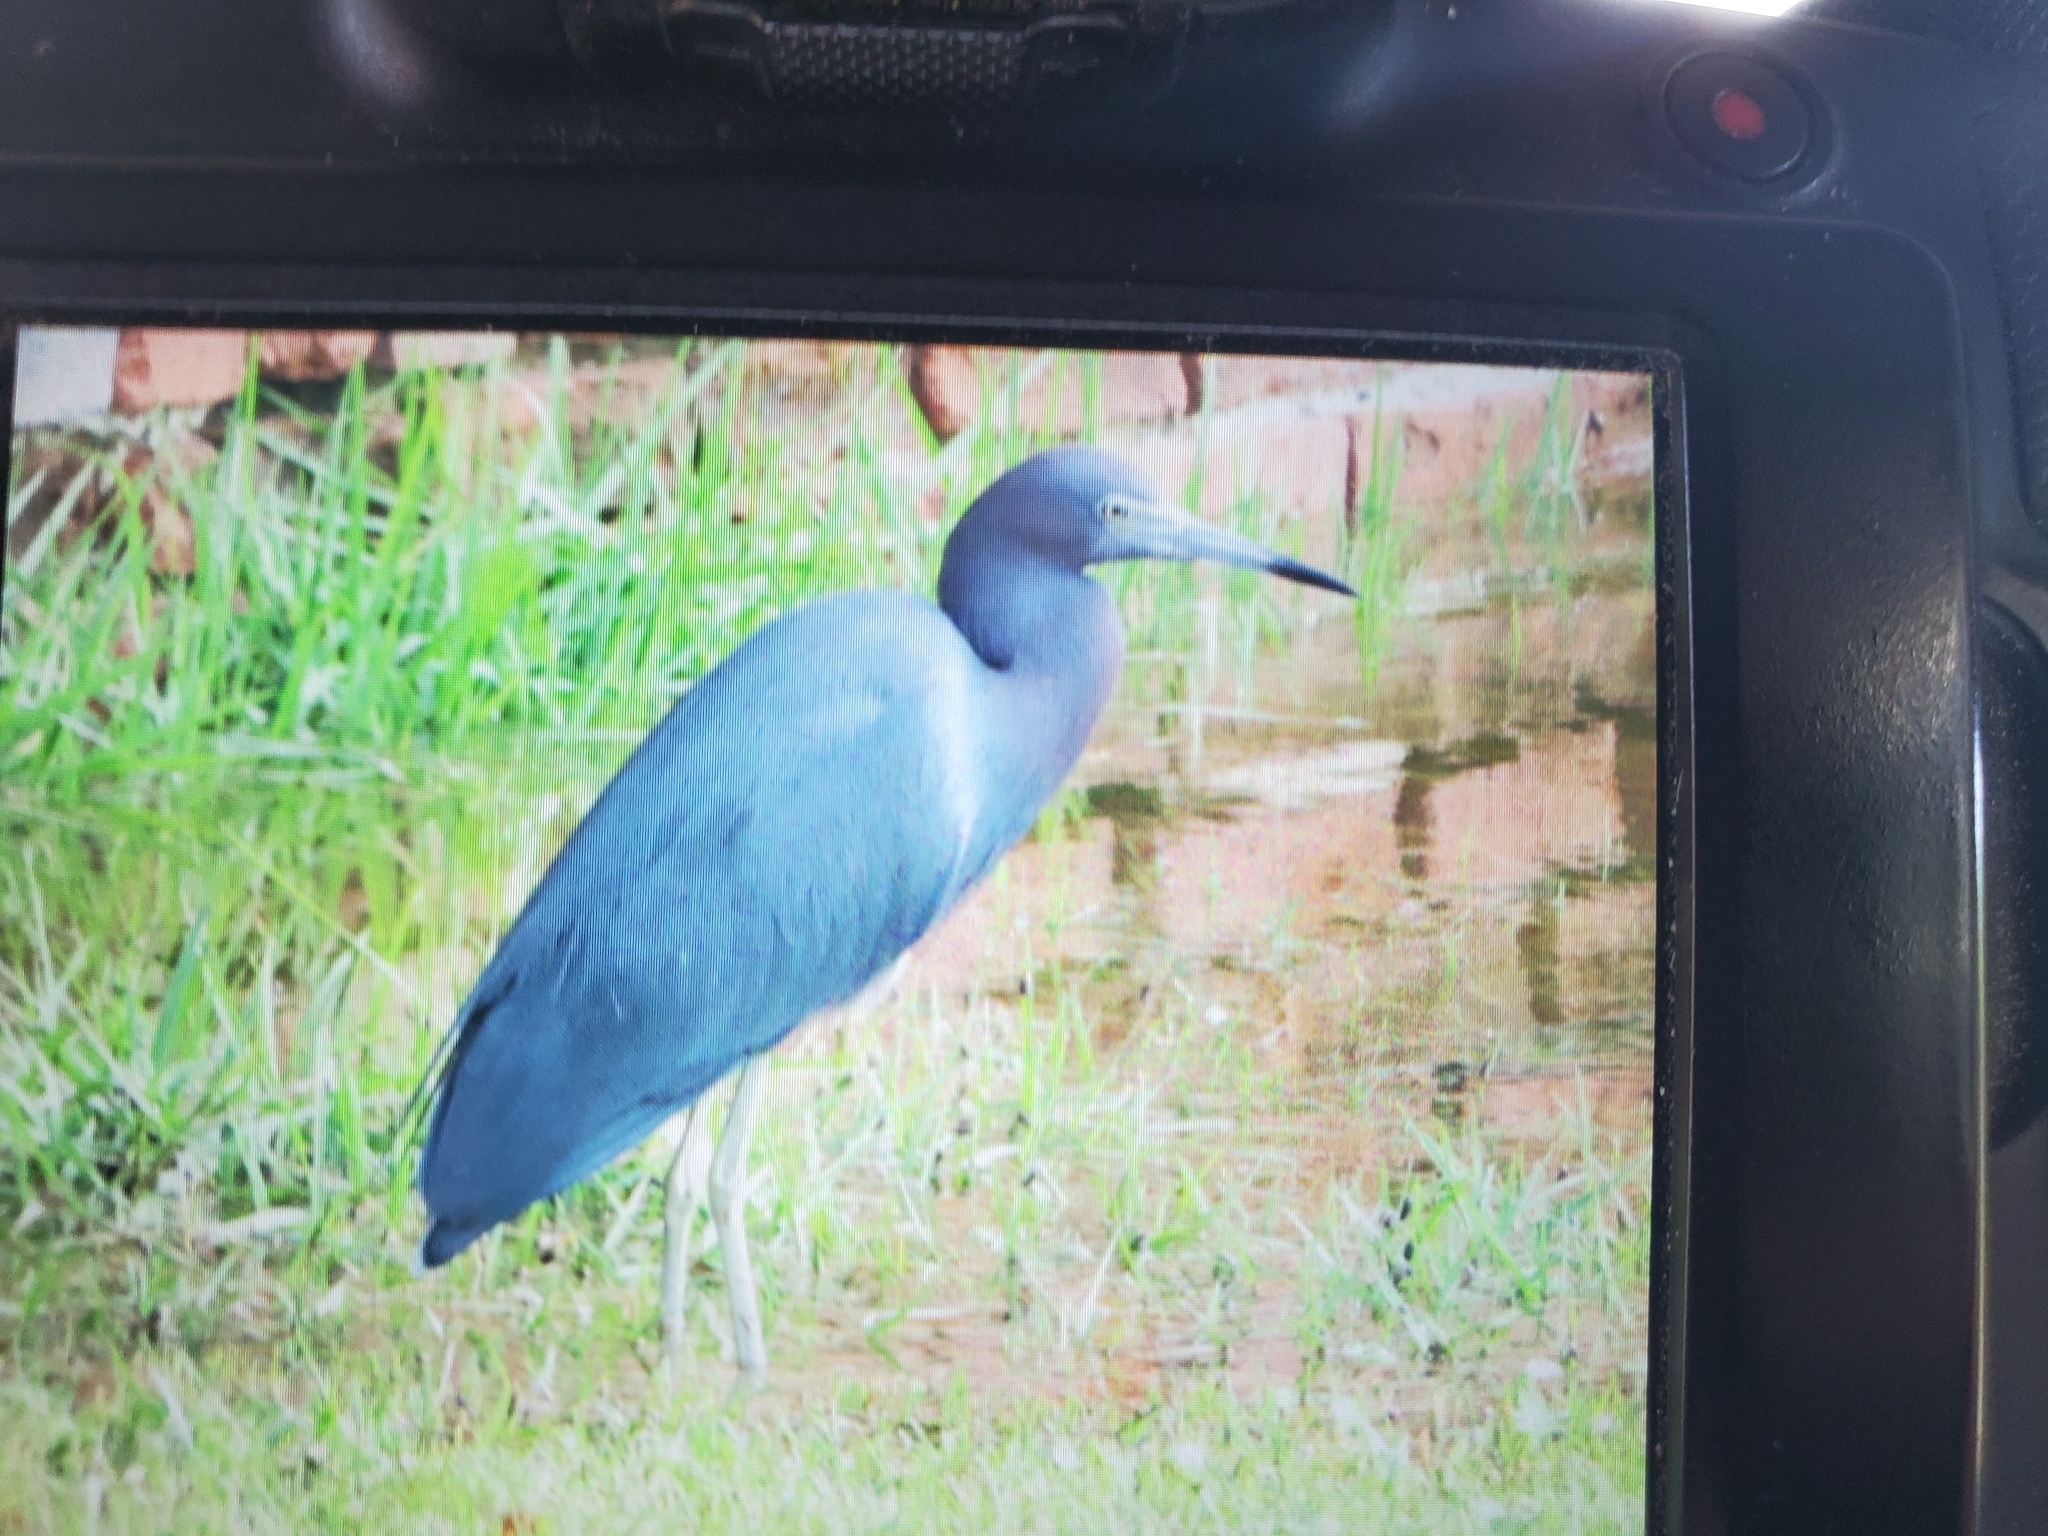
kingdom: Animalia
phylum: Chordata
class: Aves
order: Pelecaniformes
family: Ardeidae
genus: Egretta
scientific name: Egretta caerulea
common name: Little blue heron
